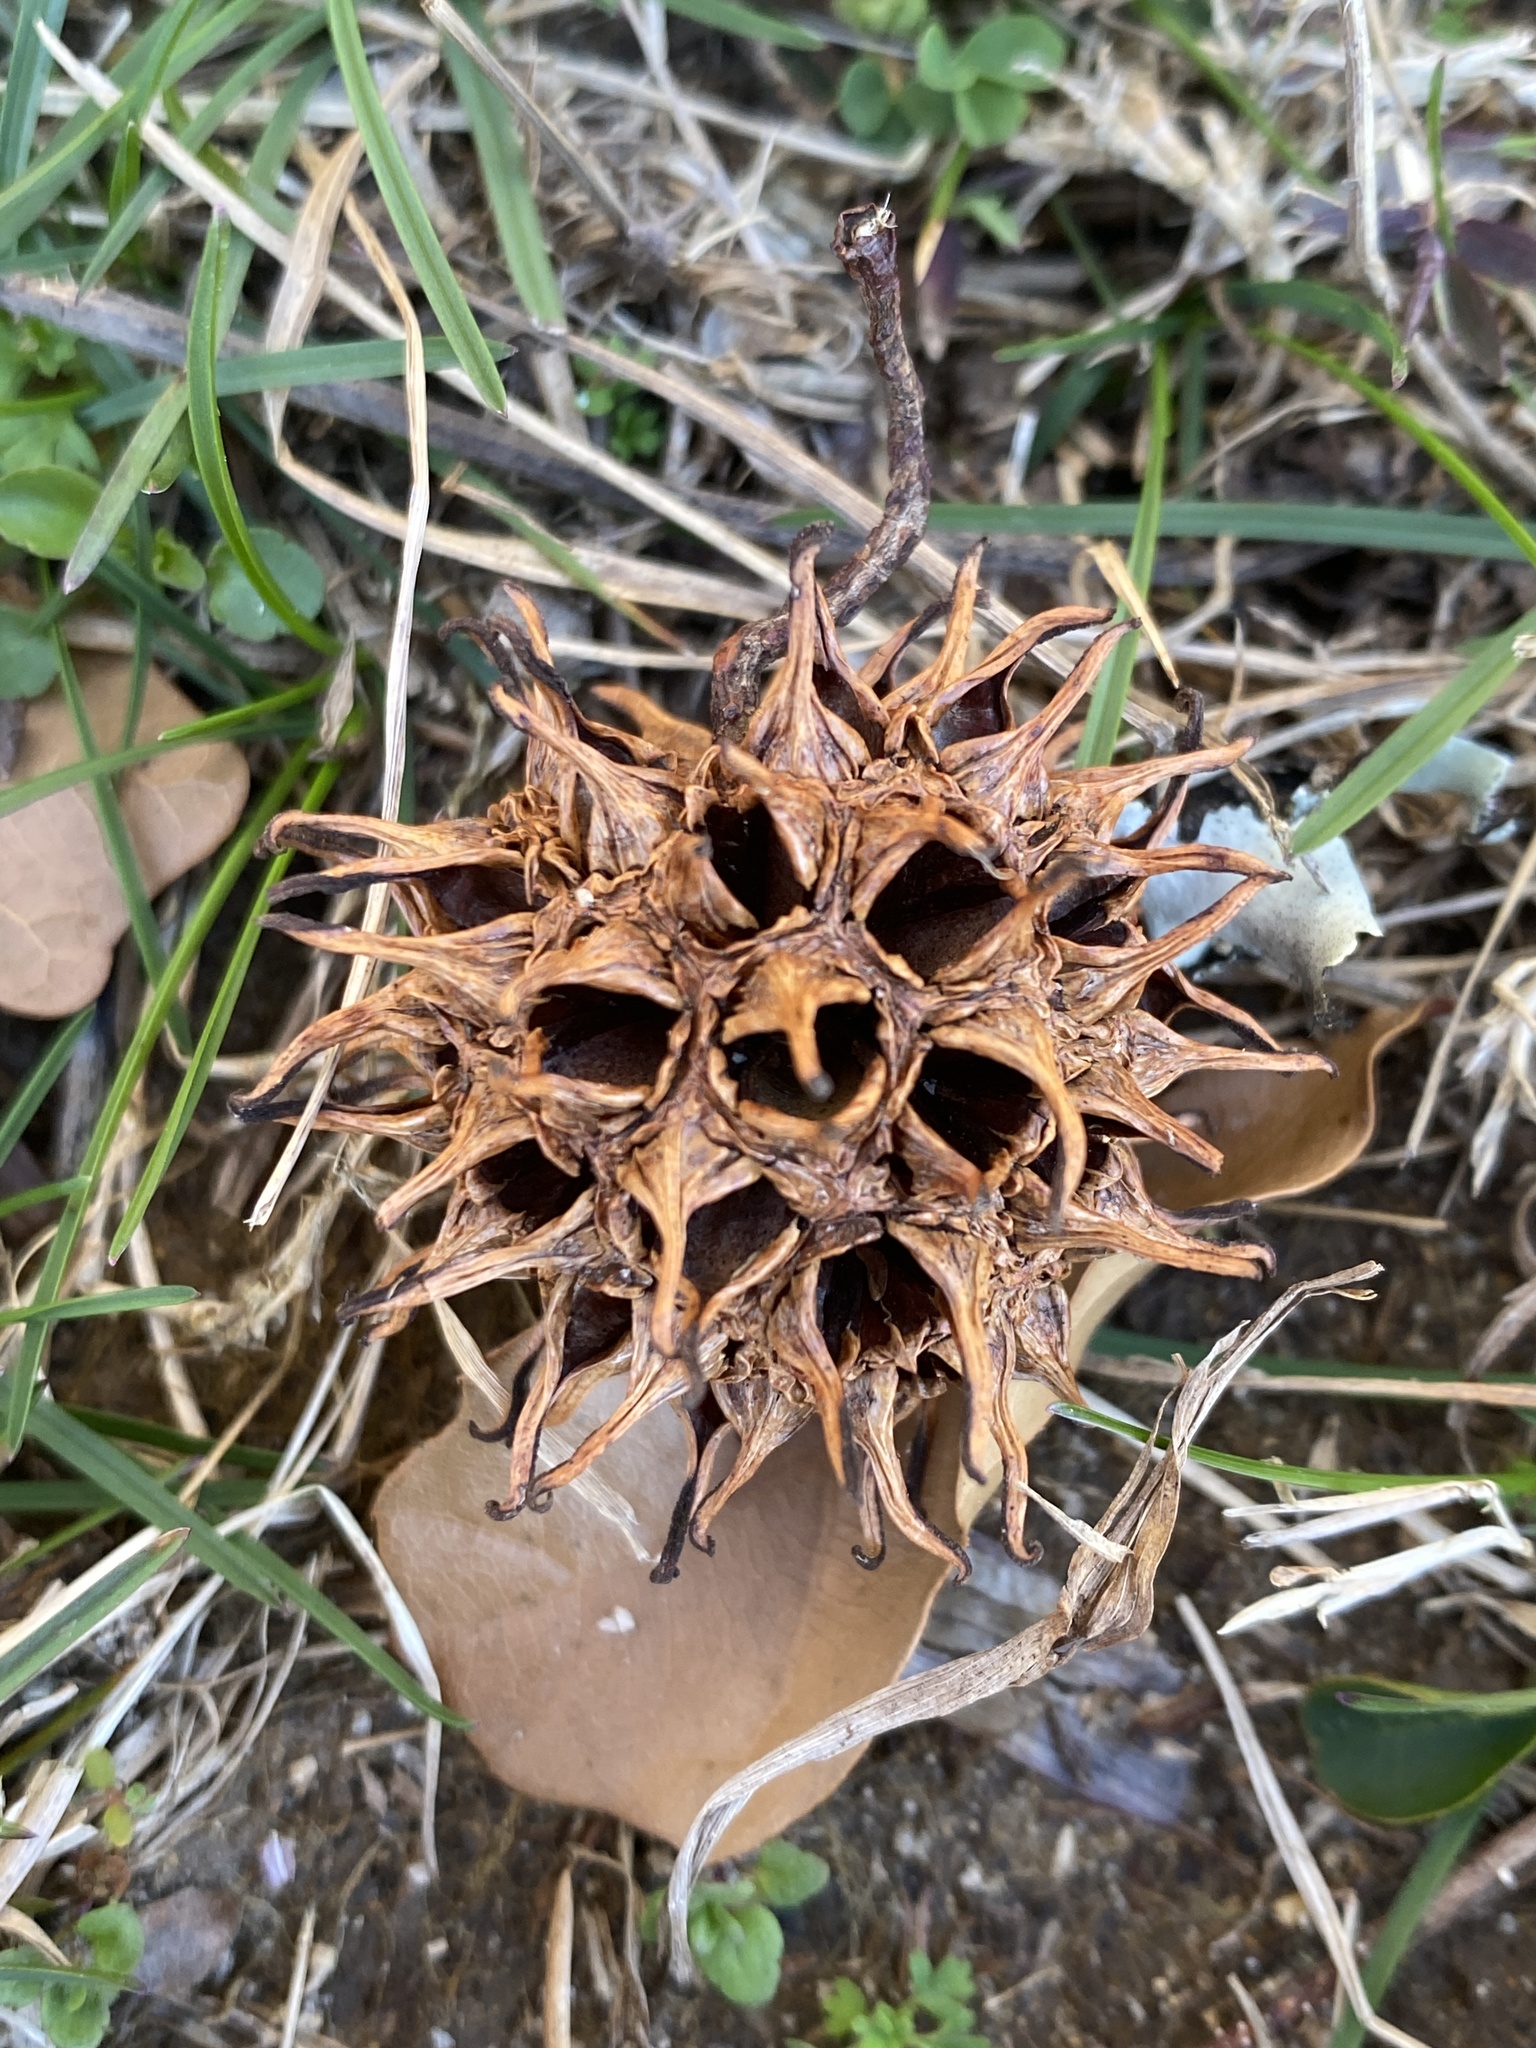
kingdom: Plantae
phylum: Tracheophyta
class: Magnoliopsida
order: Saxifragales
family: Altingiaceae
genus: Liquidambar
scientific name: Liquidambar styraciflua
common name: Sweet gum
